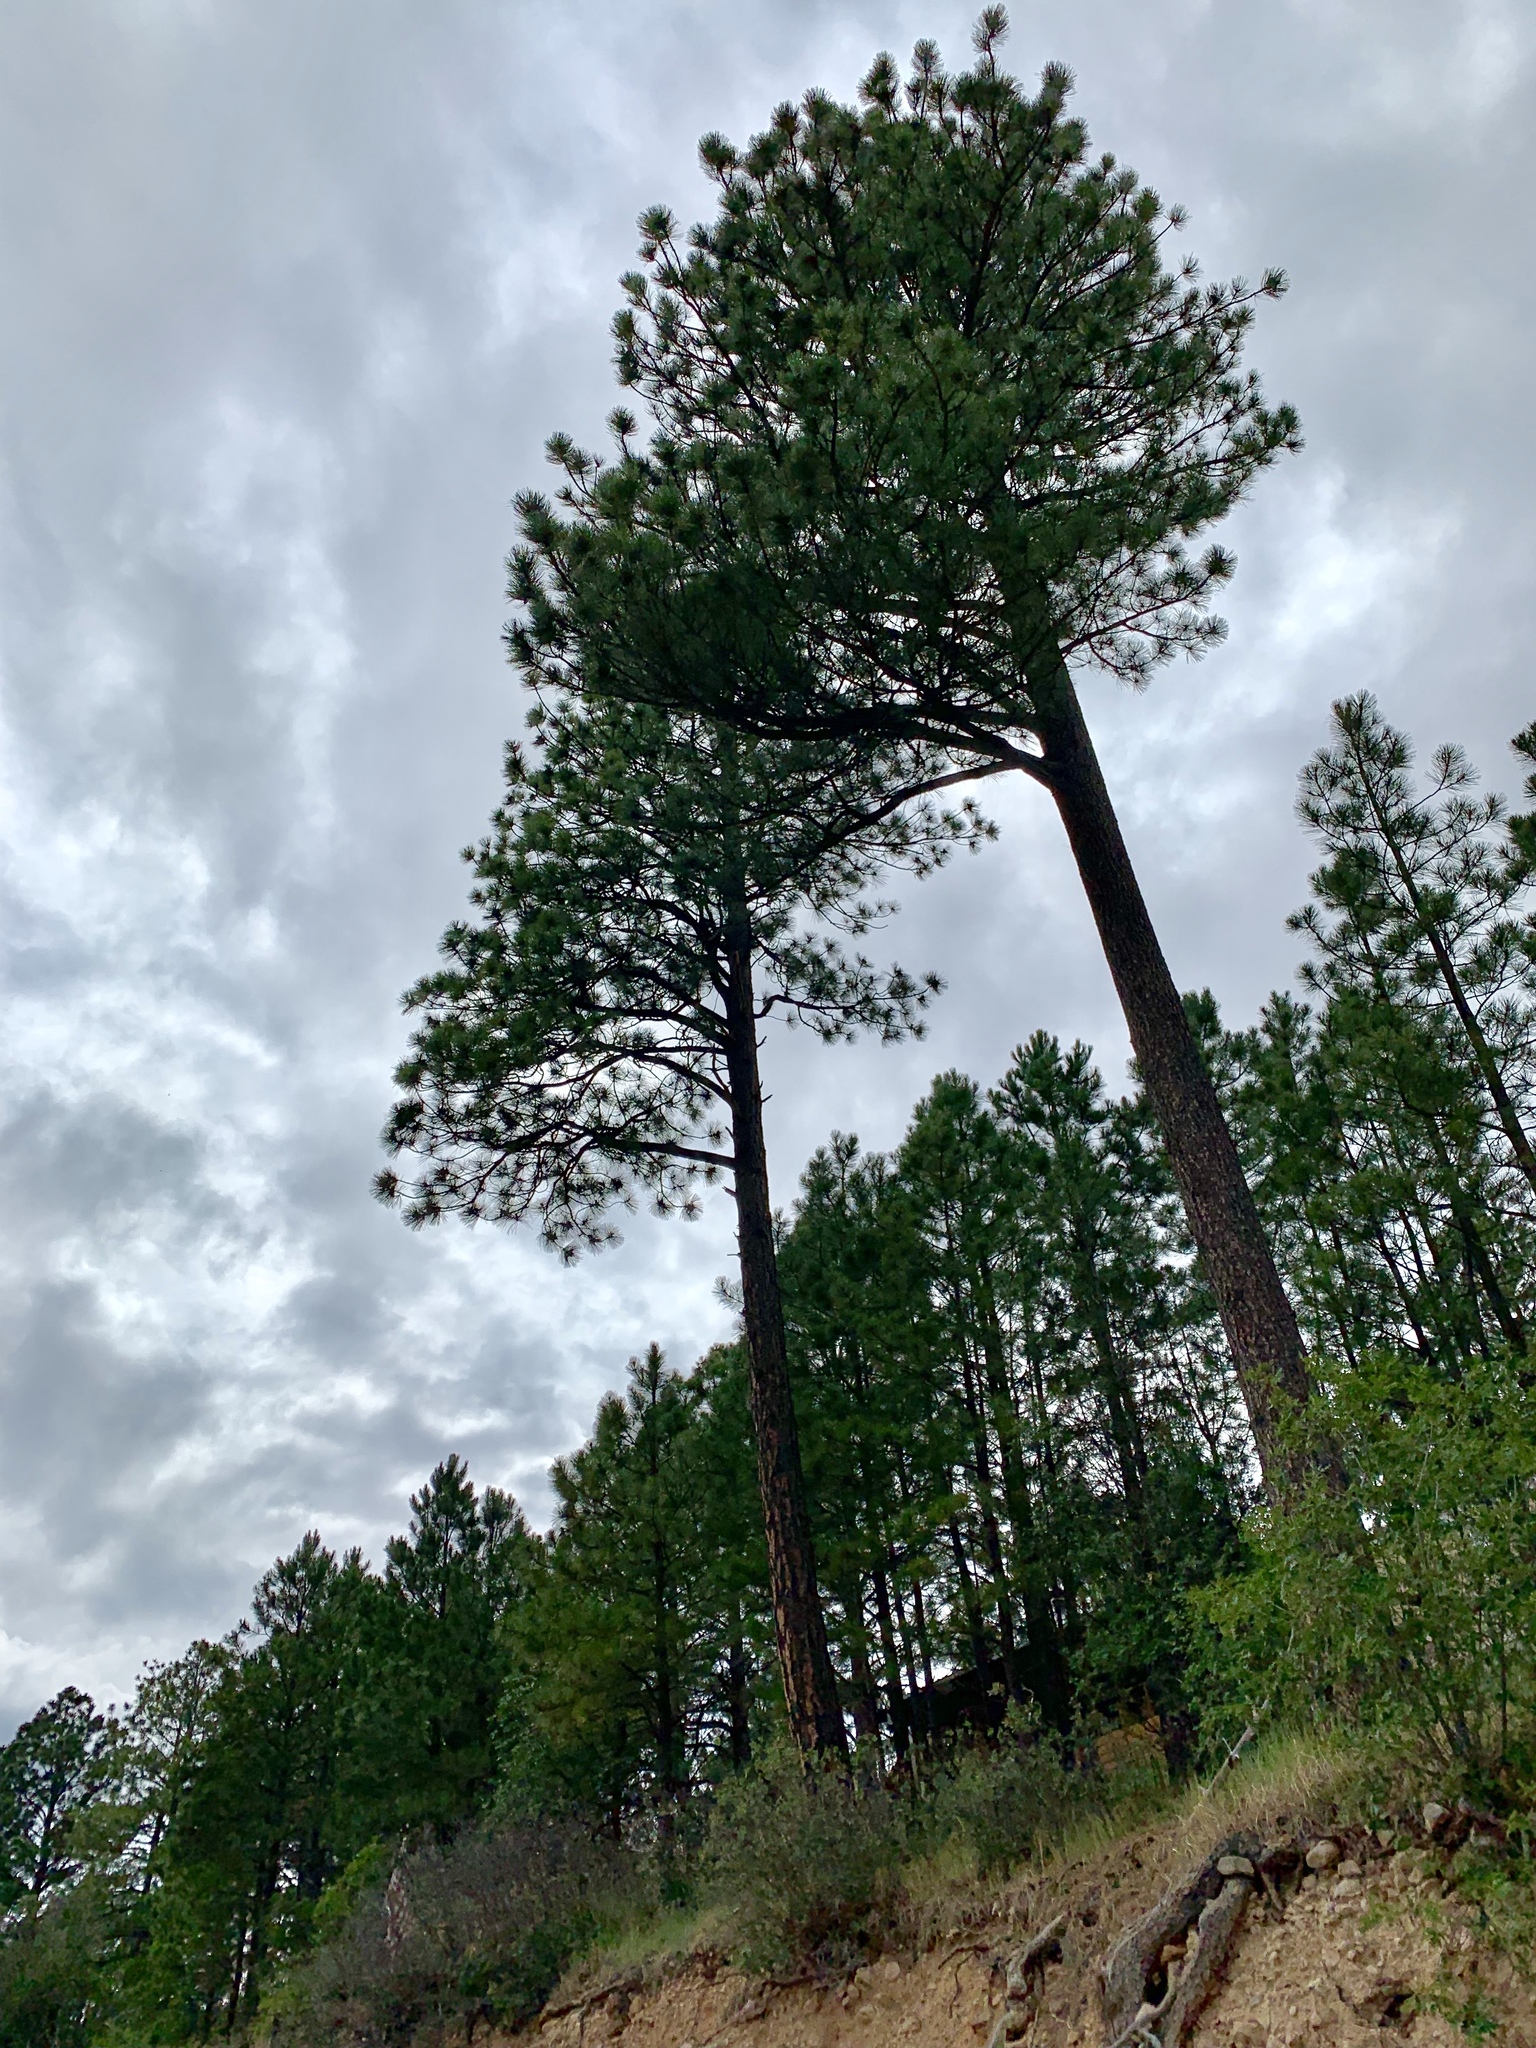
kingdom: Plantae
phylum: Tracheophyta
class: Pinopsida
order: Pinales
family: Pinaceae
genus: Pinus
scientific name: Pinus ponderosa
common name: Western yellow-pine
